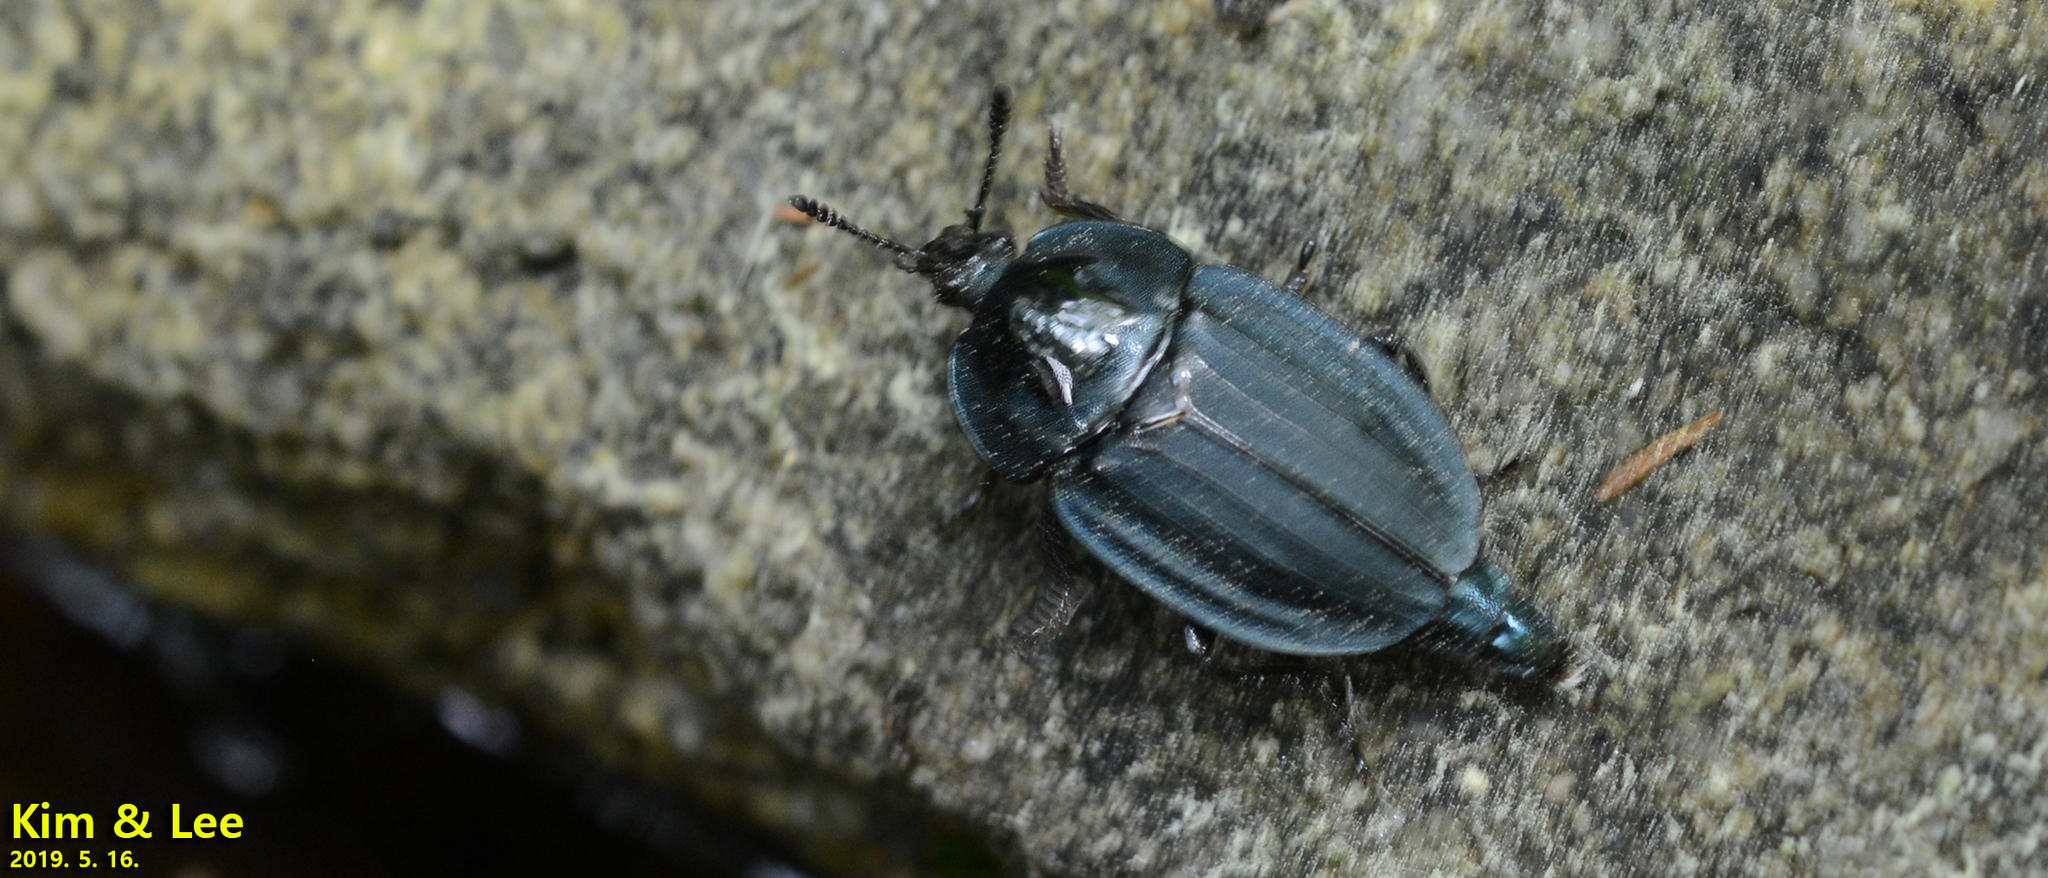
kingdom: Animalia
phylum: Arthropoda
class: Insecta
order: Coleoptera
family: Silphidae
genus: Eusilpha
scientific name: Eusilpha
